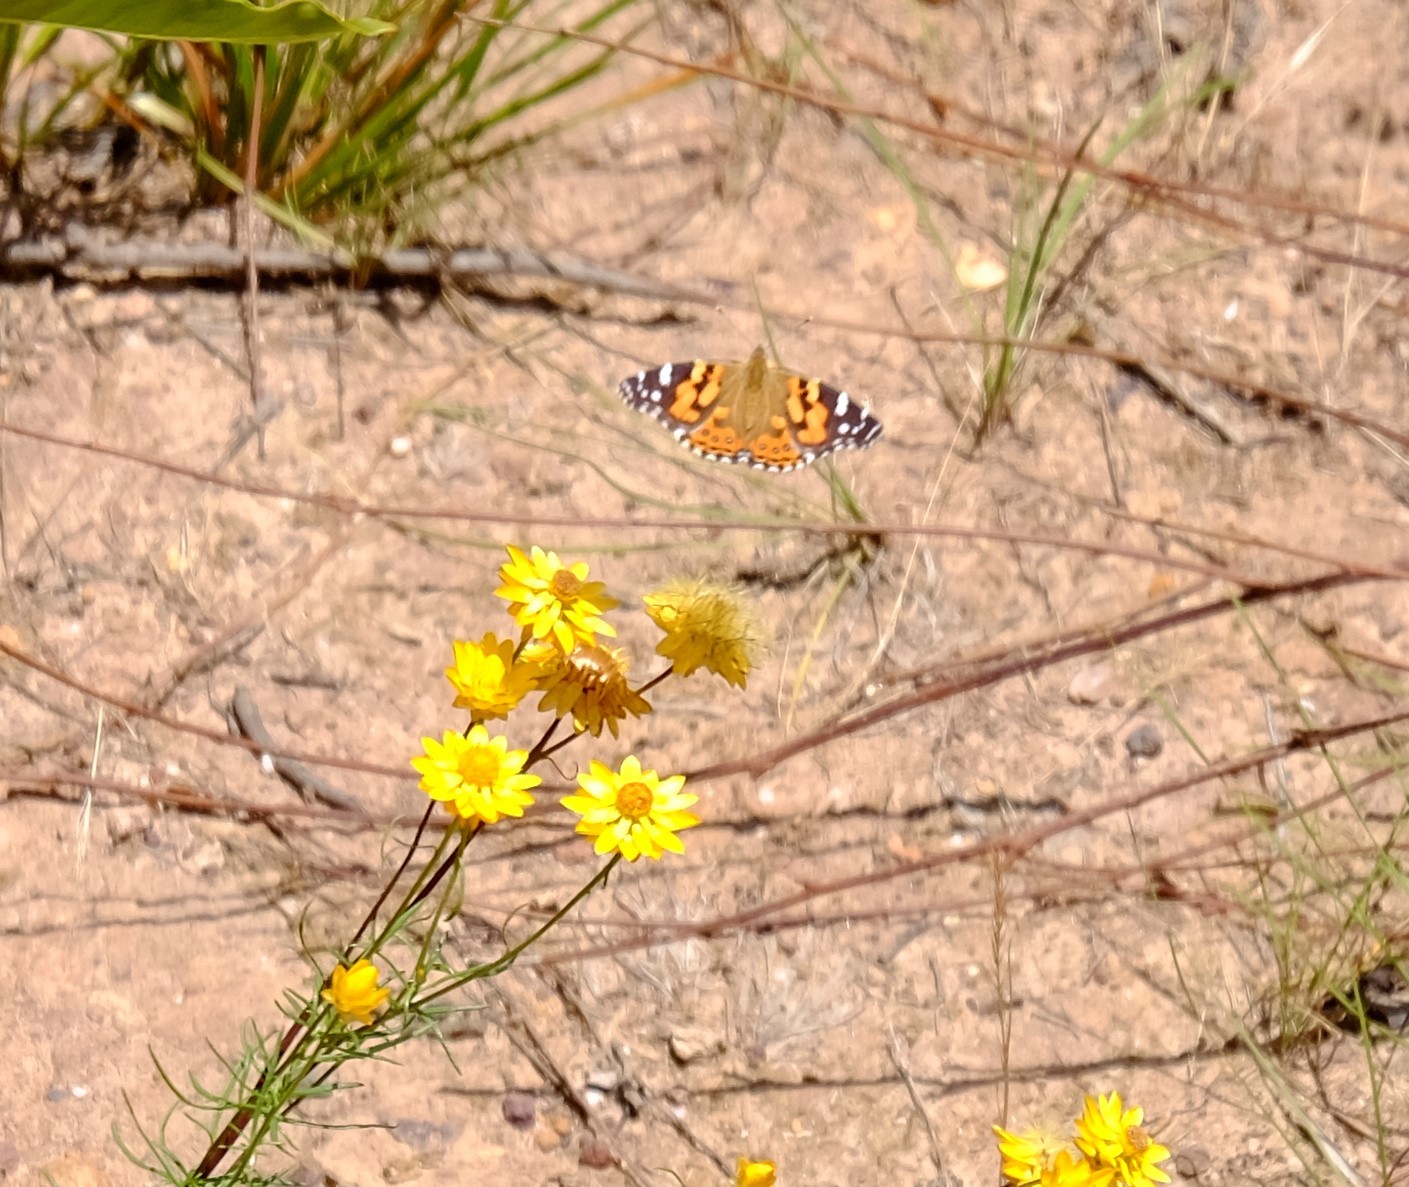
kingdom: Animalia
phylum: Arthropoda
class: Insecta
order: Lepidoptera
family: Nymphalidae
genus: Vanessa
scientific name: Vanessa kershawi
